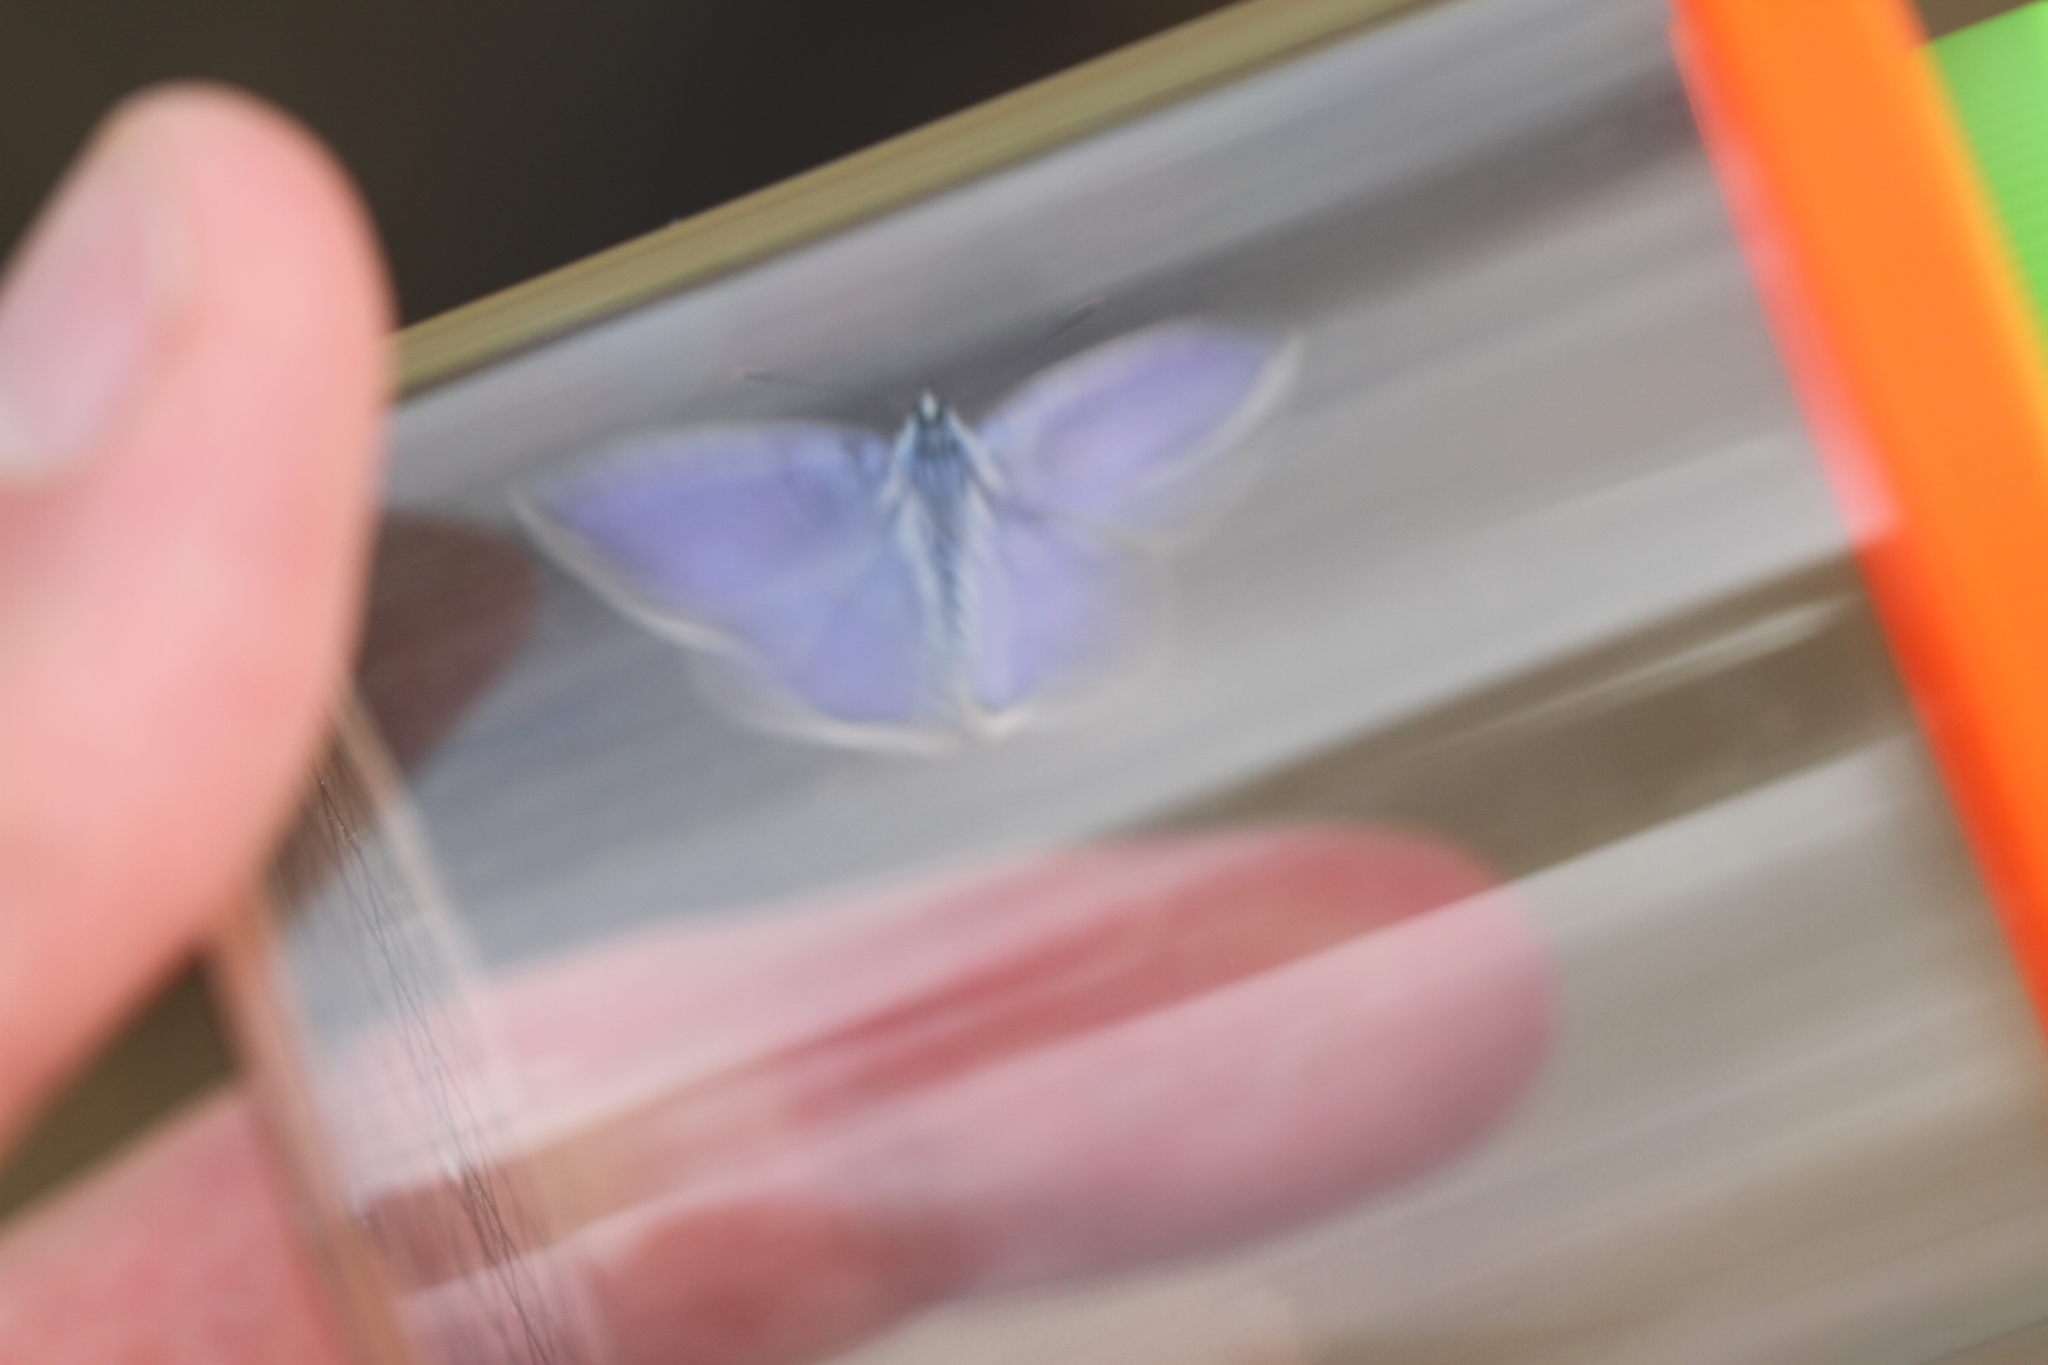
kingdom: Animalia
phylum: Arthropoda
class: Insecta
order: Lepidoptera
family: Lycaenidae
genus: Polyommatus
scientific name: Polyommatus icarus
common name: Common blue
